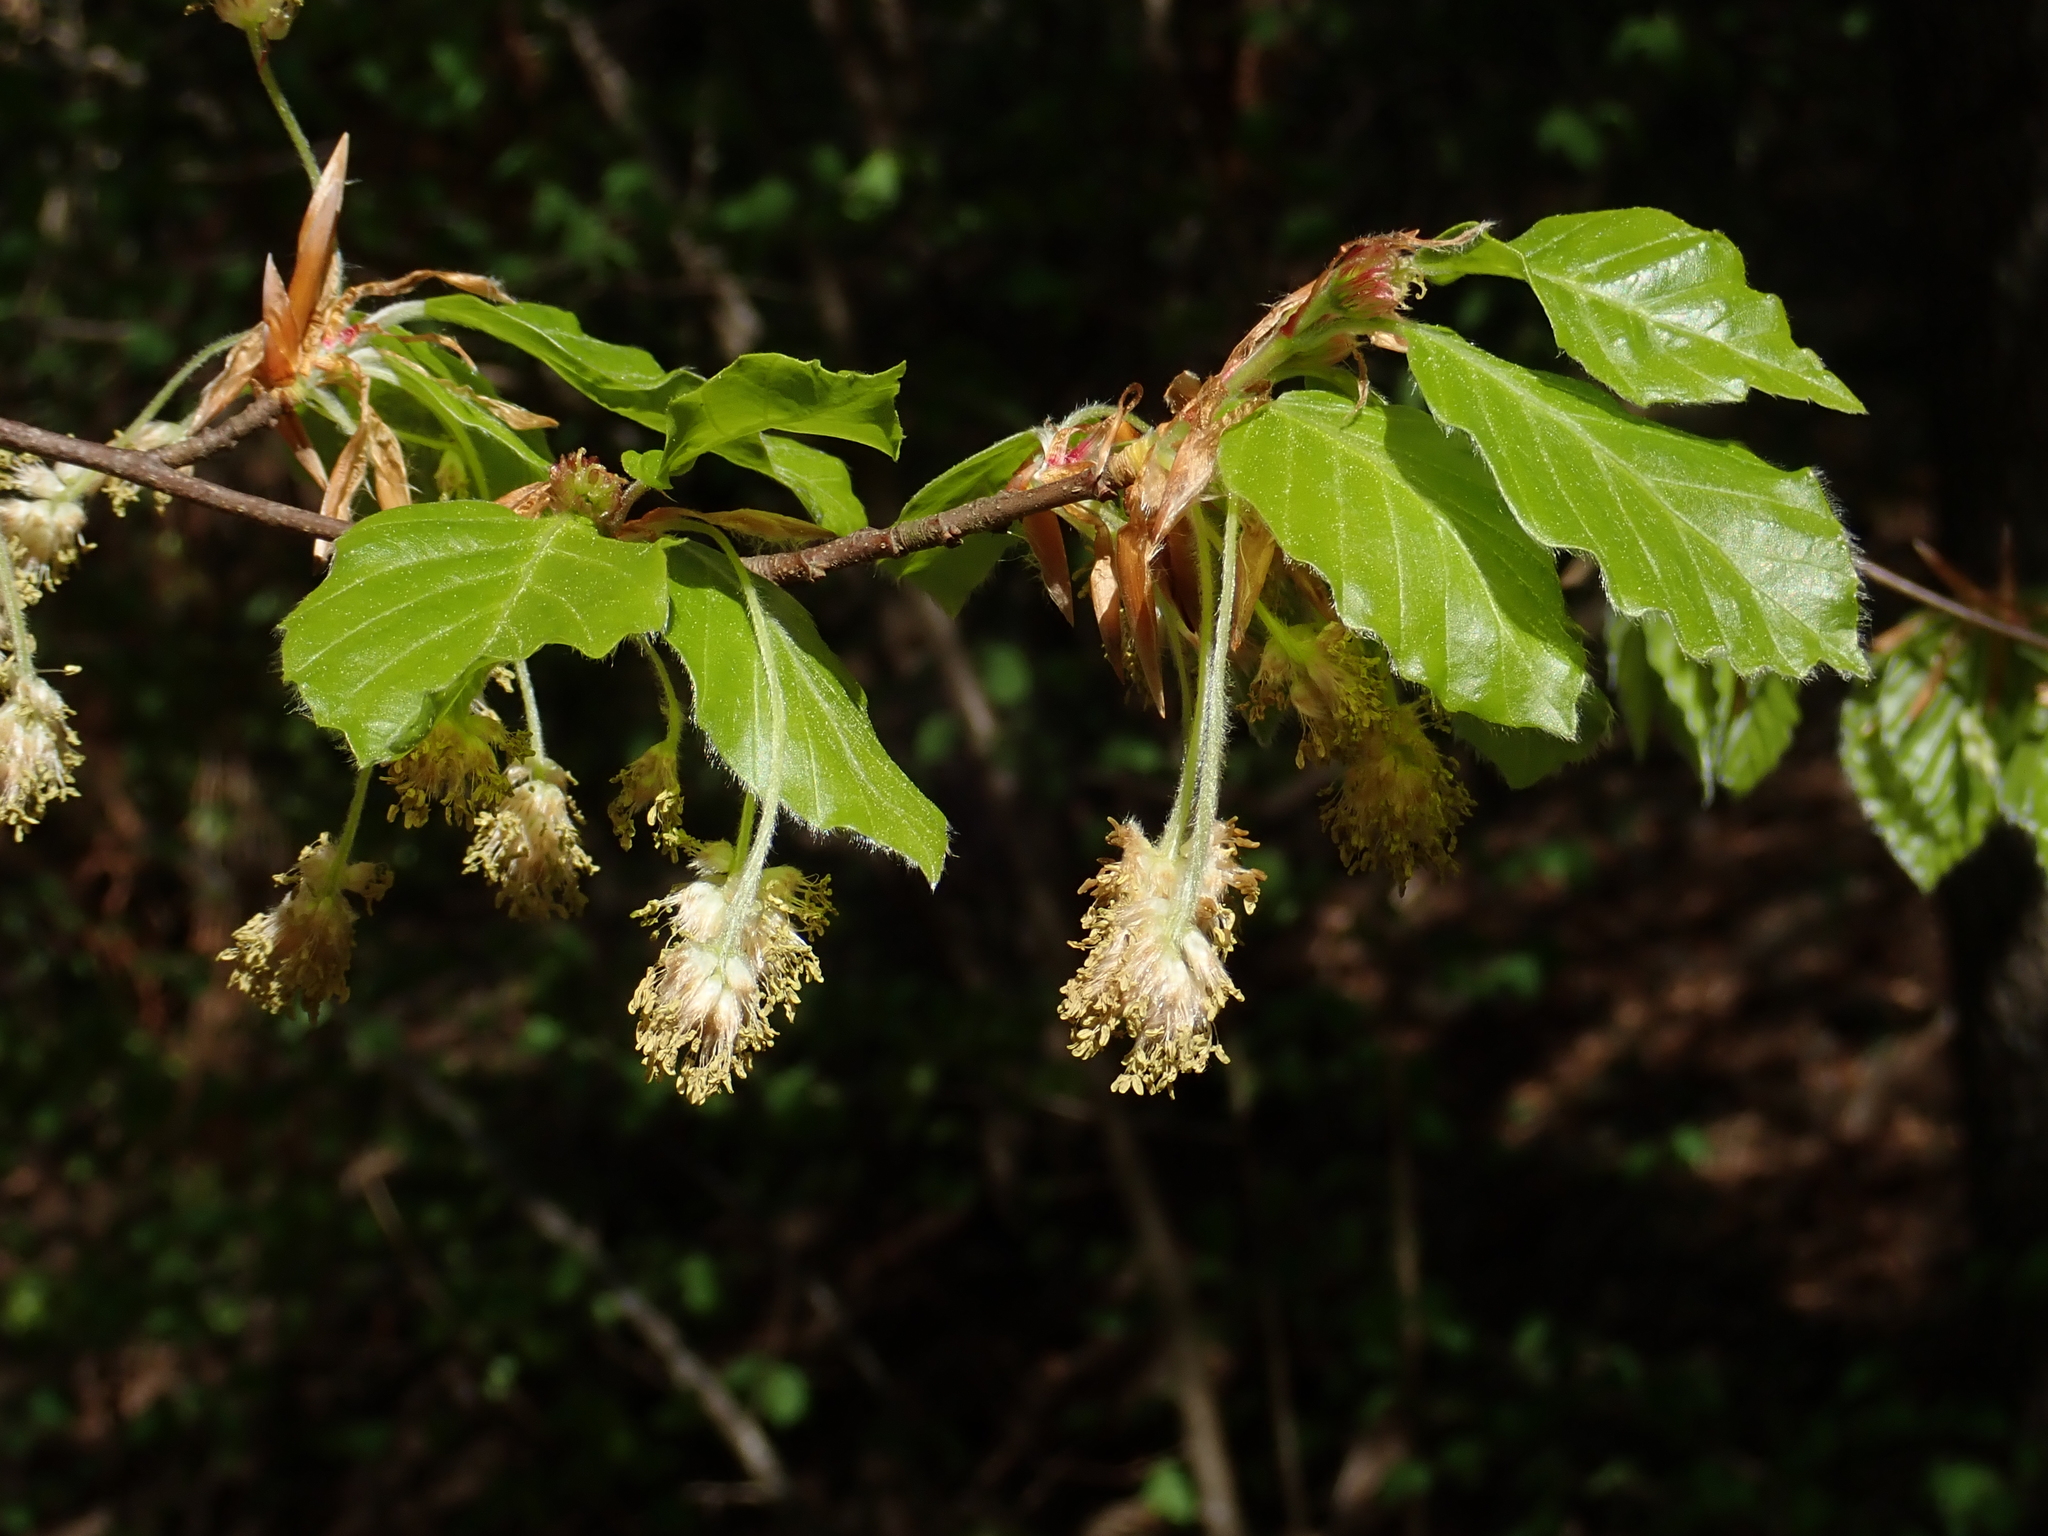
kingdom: Plantae
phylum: Tracheophyta
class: Magnoliopsida
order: Fagales
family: Fagaceae
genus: Fagus
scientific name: Fagus sylvatica
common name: Beech
